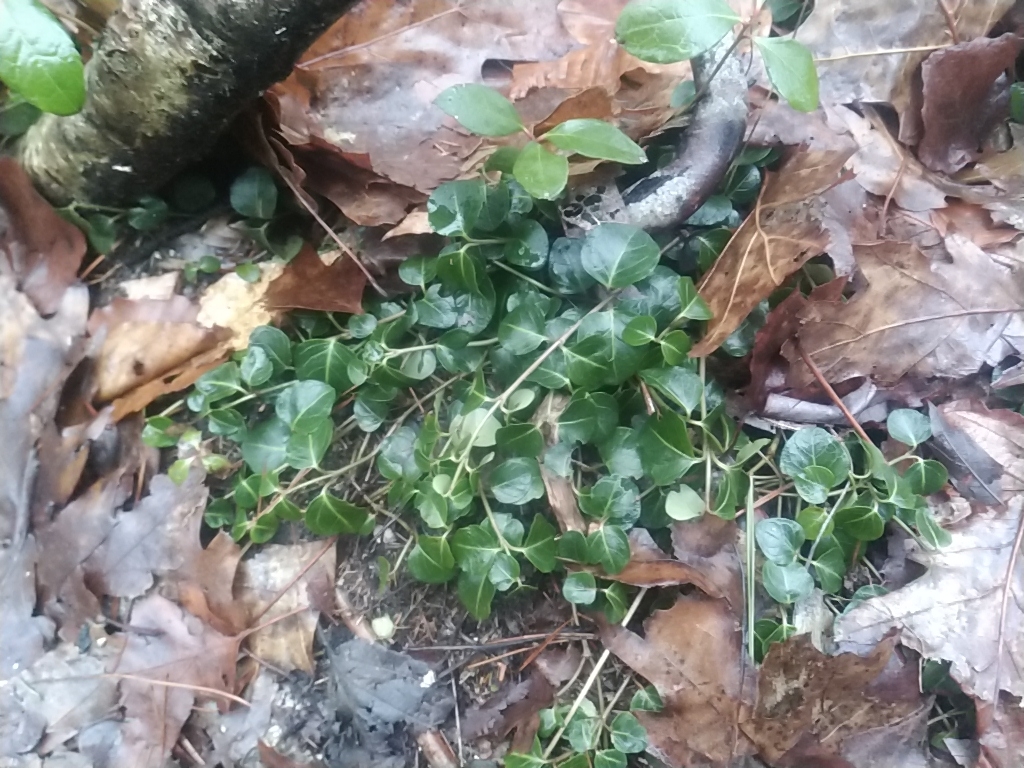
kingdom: Plantae
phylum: Tracheophyta
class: Magnoliopsida
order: Gentianales
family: Rubiaceae
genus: Mitchella
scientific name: Mitchella repens
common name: Partridge-berry
